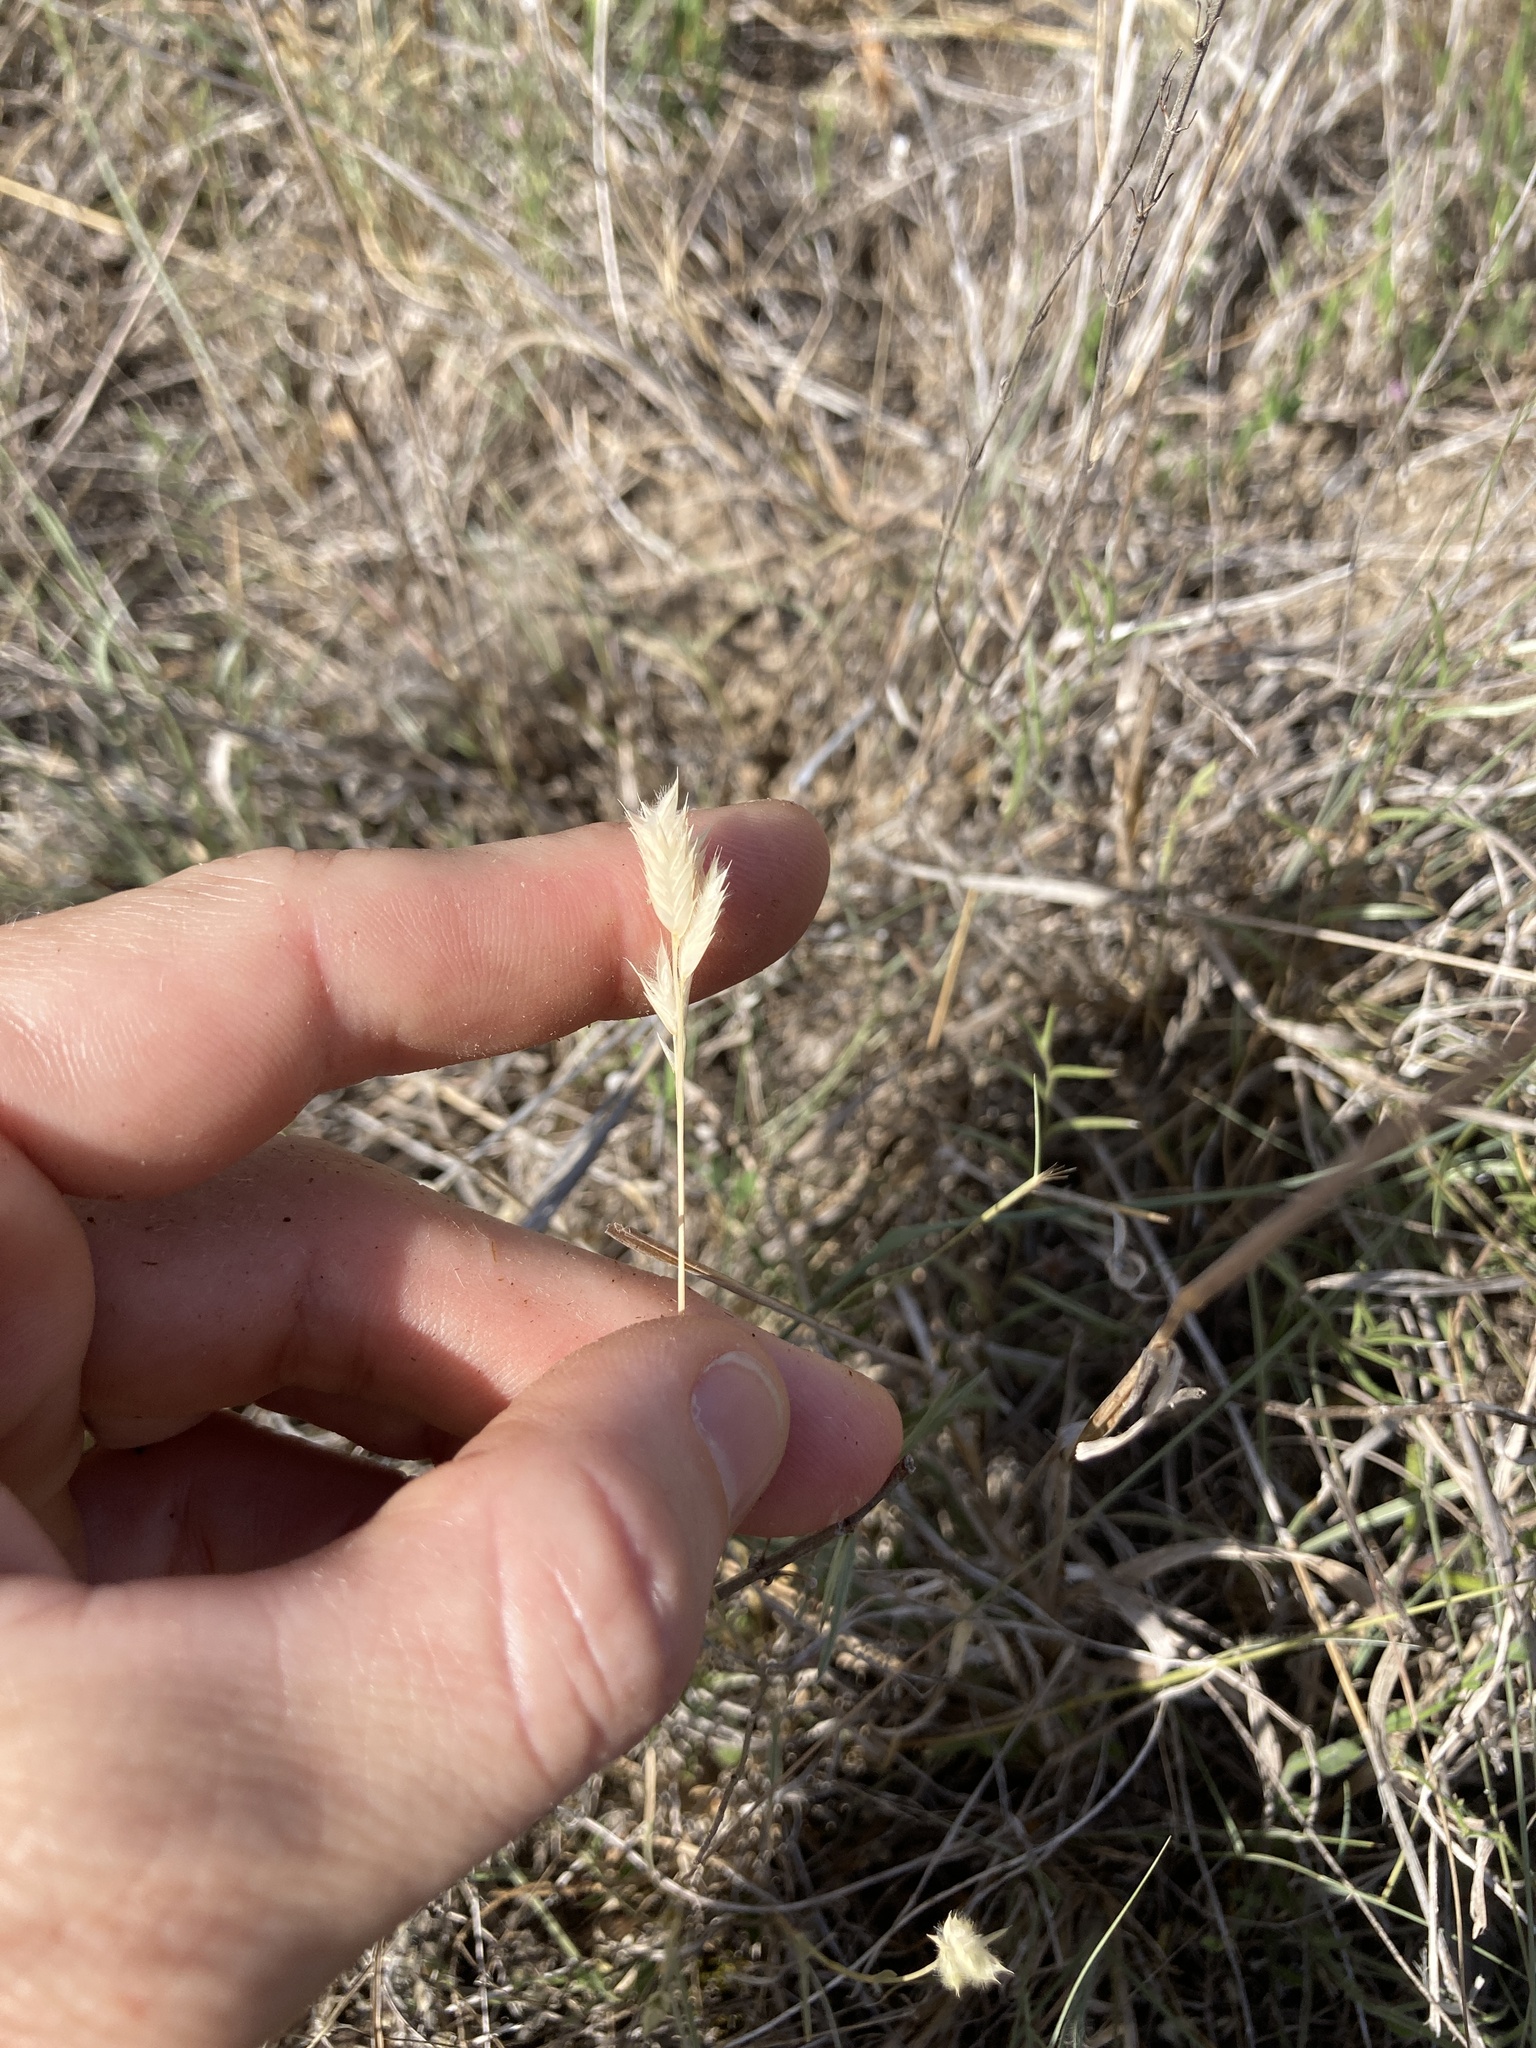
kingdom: Plantae
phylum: Tracheophyta
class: Liliopsida
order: Poales
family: Poaceae
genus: Erioneuron
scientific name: Erioneuron pilosum
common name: Hairy woolly grass
